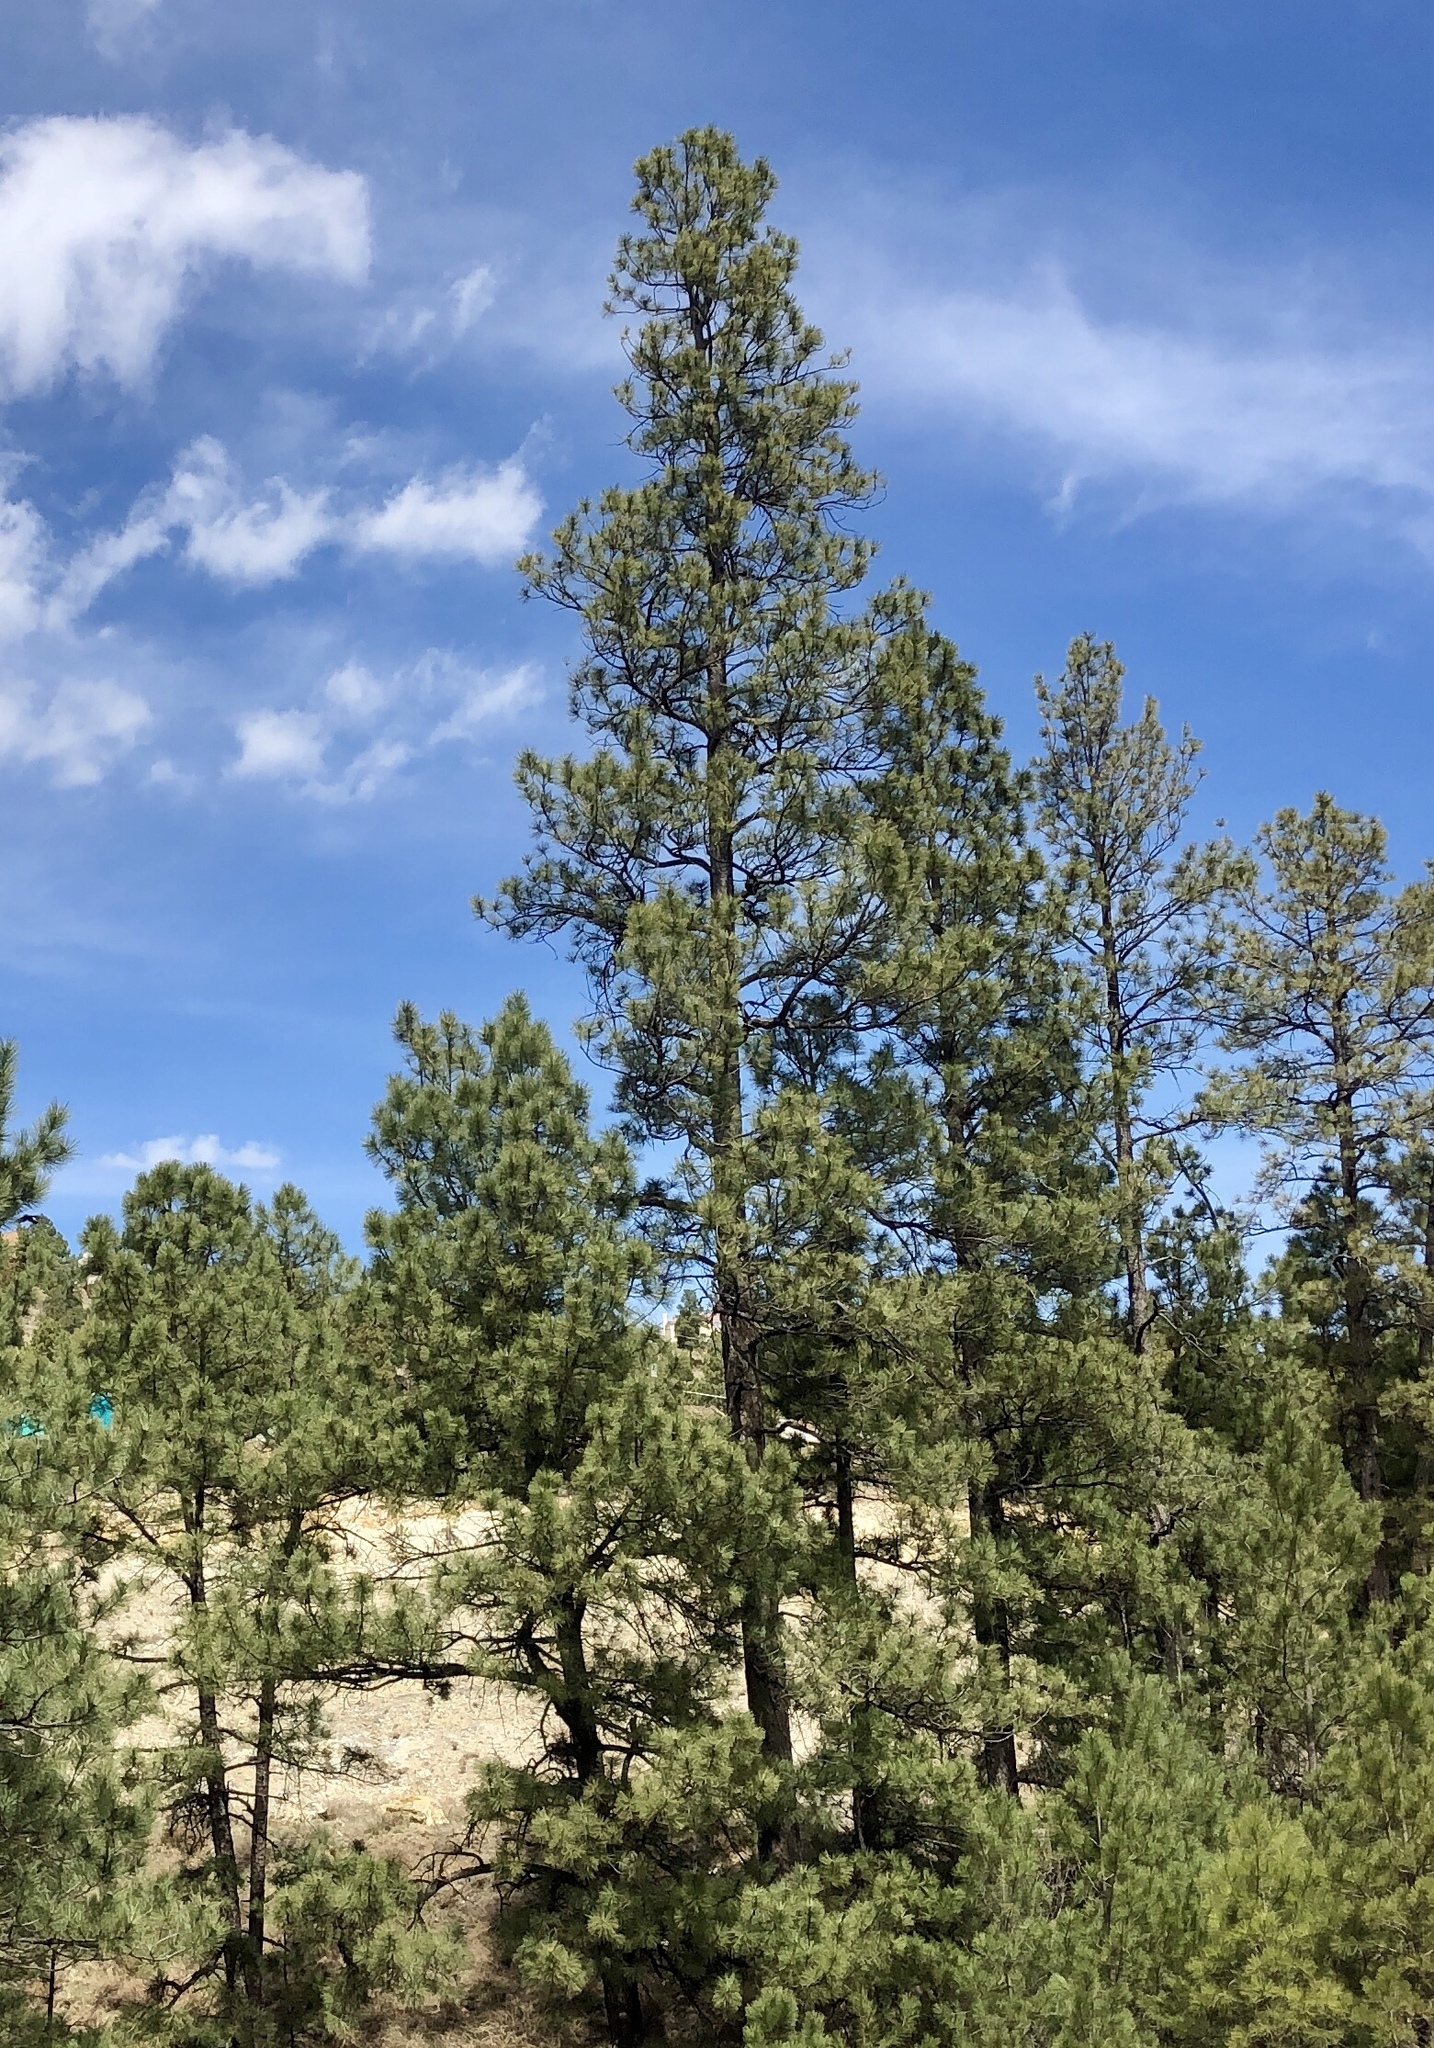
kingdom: Plantae
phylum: Tracheophyta
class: Pinopsida
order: Pinales
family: Pinaceae
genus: Pinus
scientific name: Pinus ponderosa
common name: Western yellow-pine
